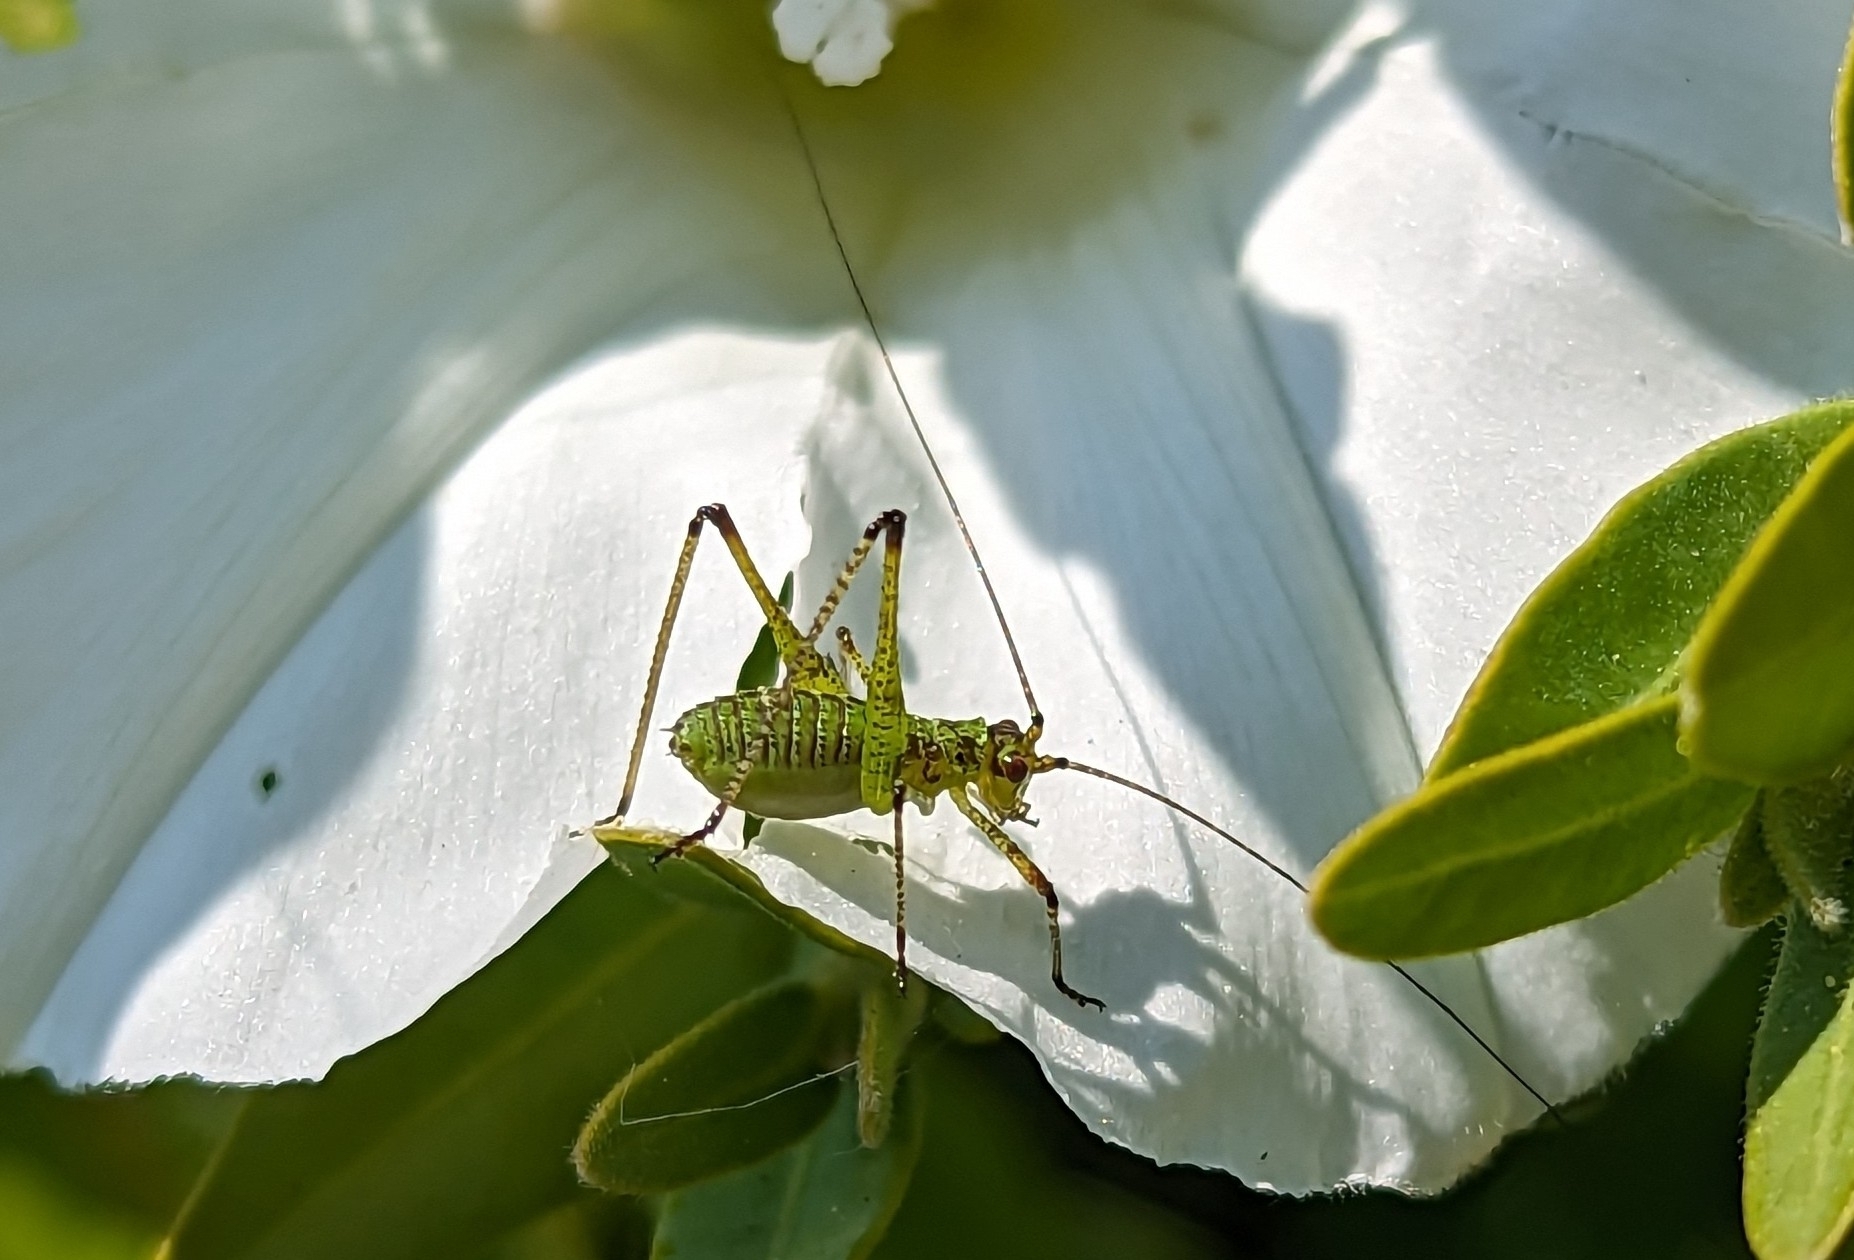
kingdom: Animalia
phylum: Arthropoda
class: Insecta
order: Orthoptera
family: Tettigoniidae
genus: Phaneroptera
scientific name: Phaneroptera nana
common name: Southern sickle bush-cricket
